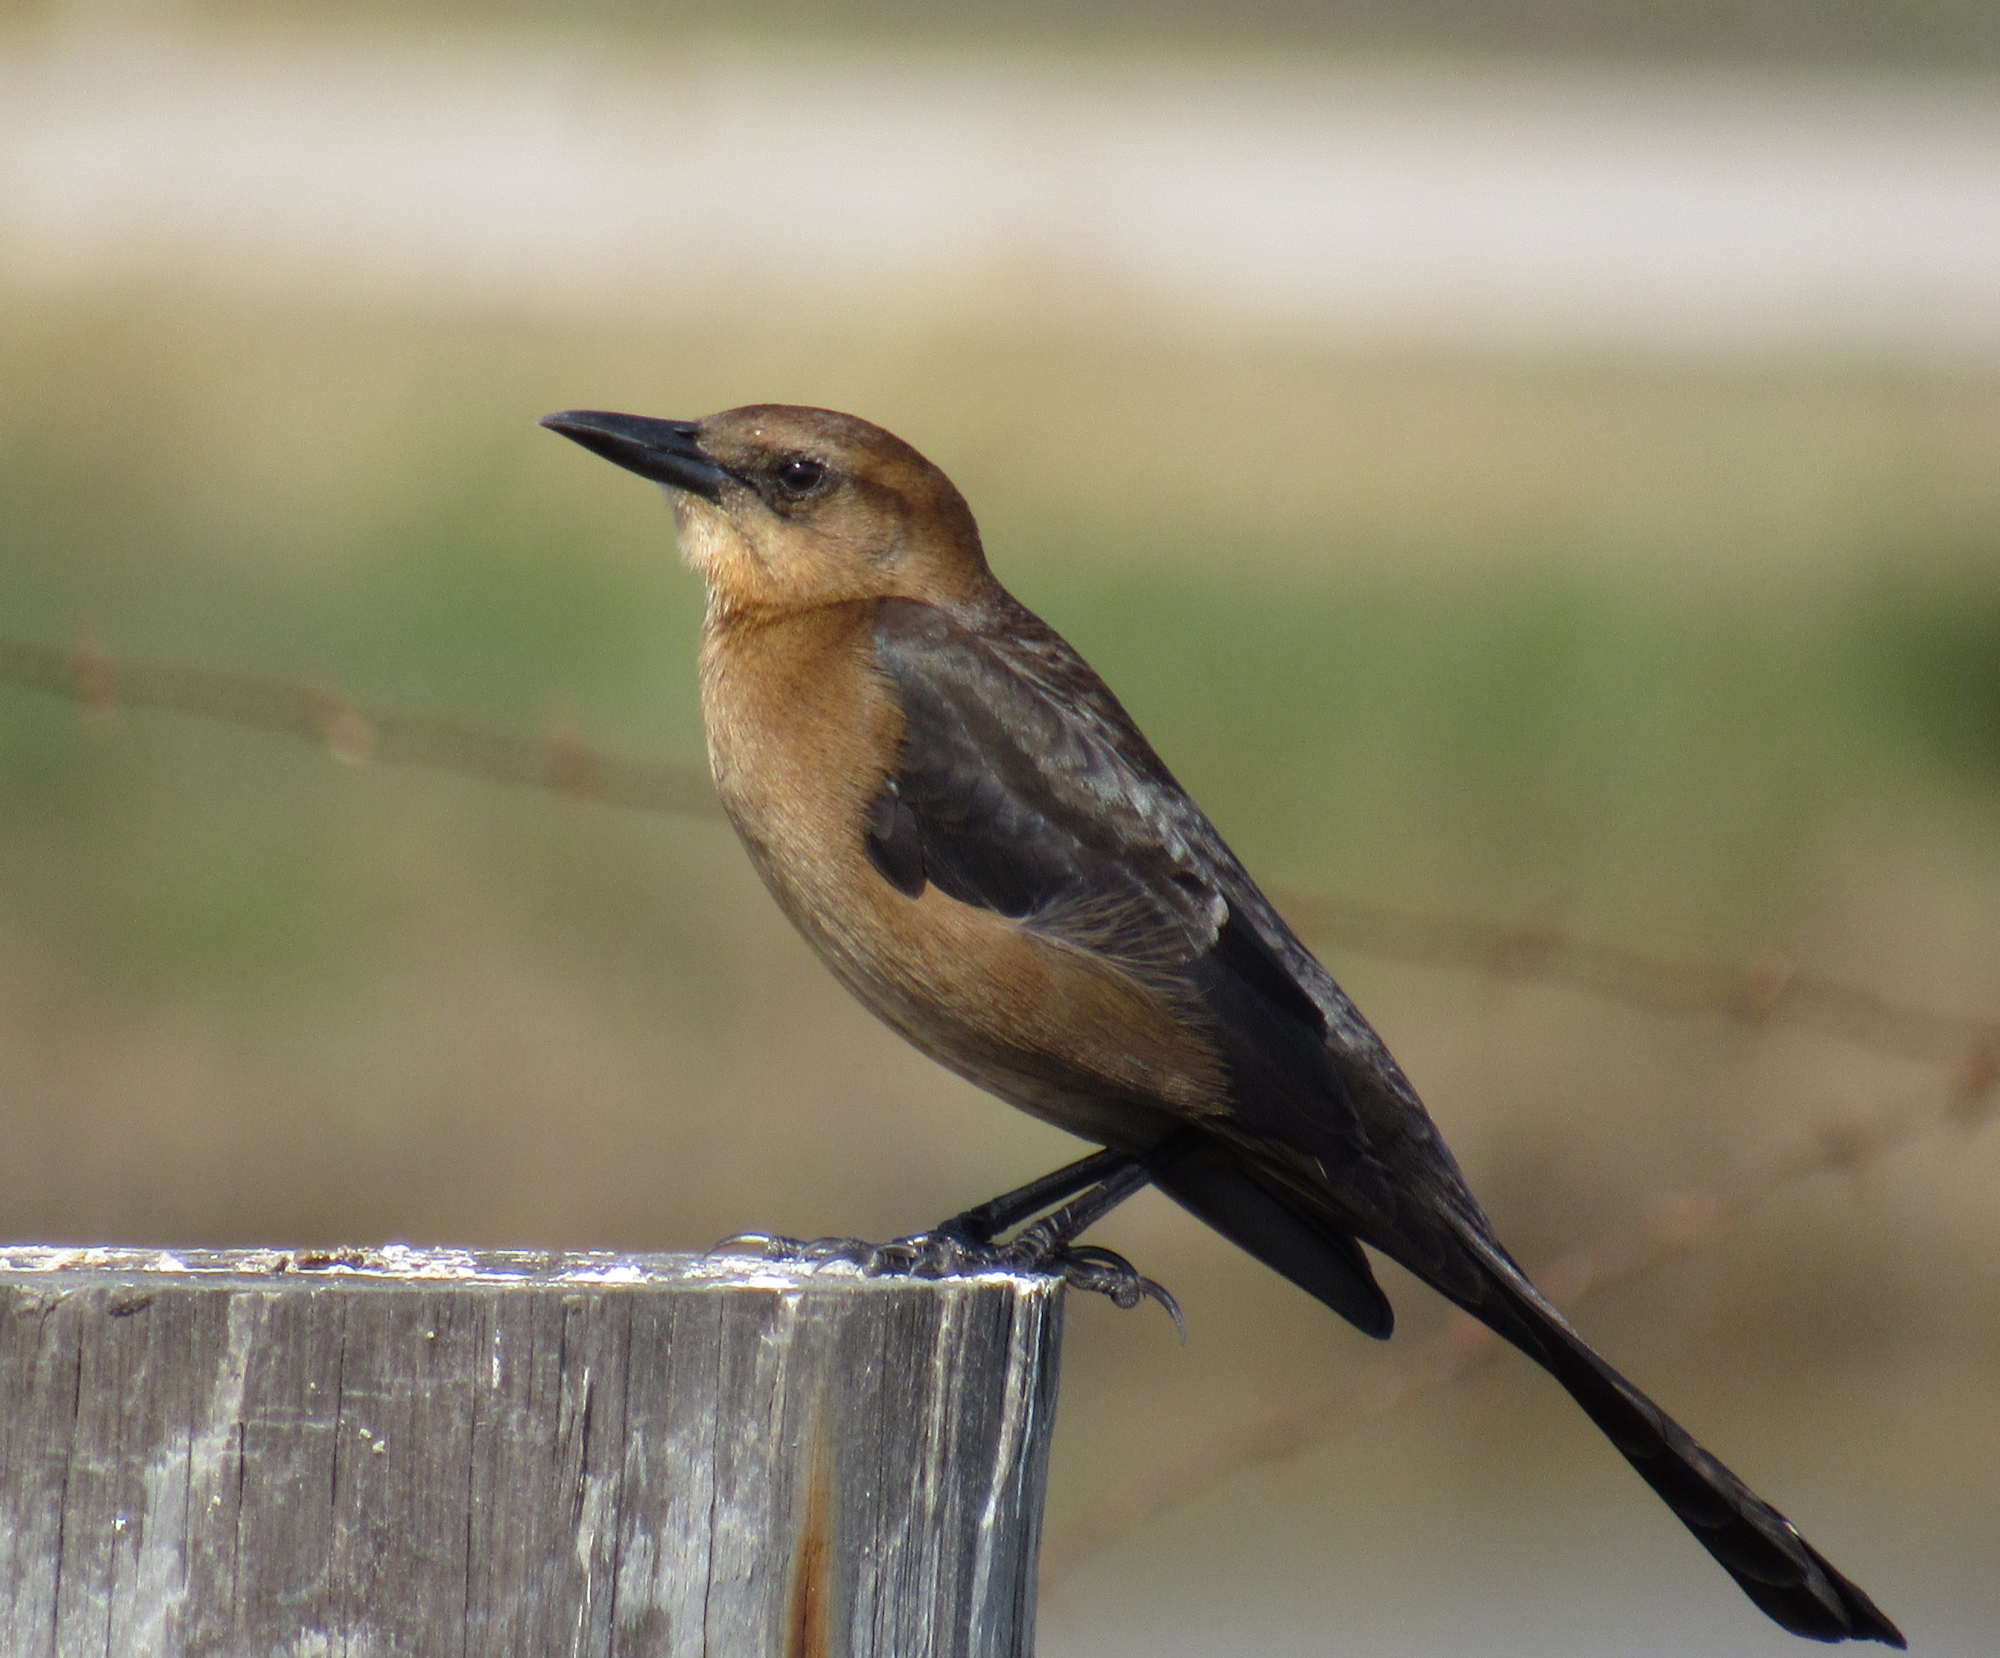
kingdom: Animalia
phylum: Chordata
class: Aves
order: Passeriformes
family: Icteridae
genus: Quiscalus
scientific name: Quiscalus major
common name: Boat-tailed grackle
